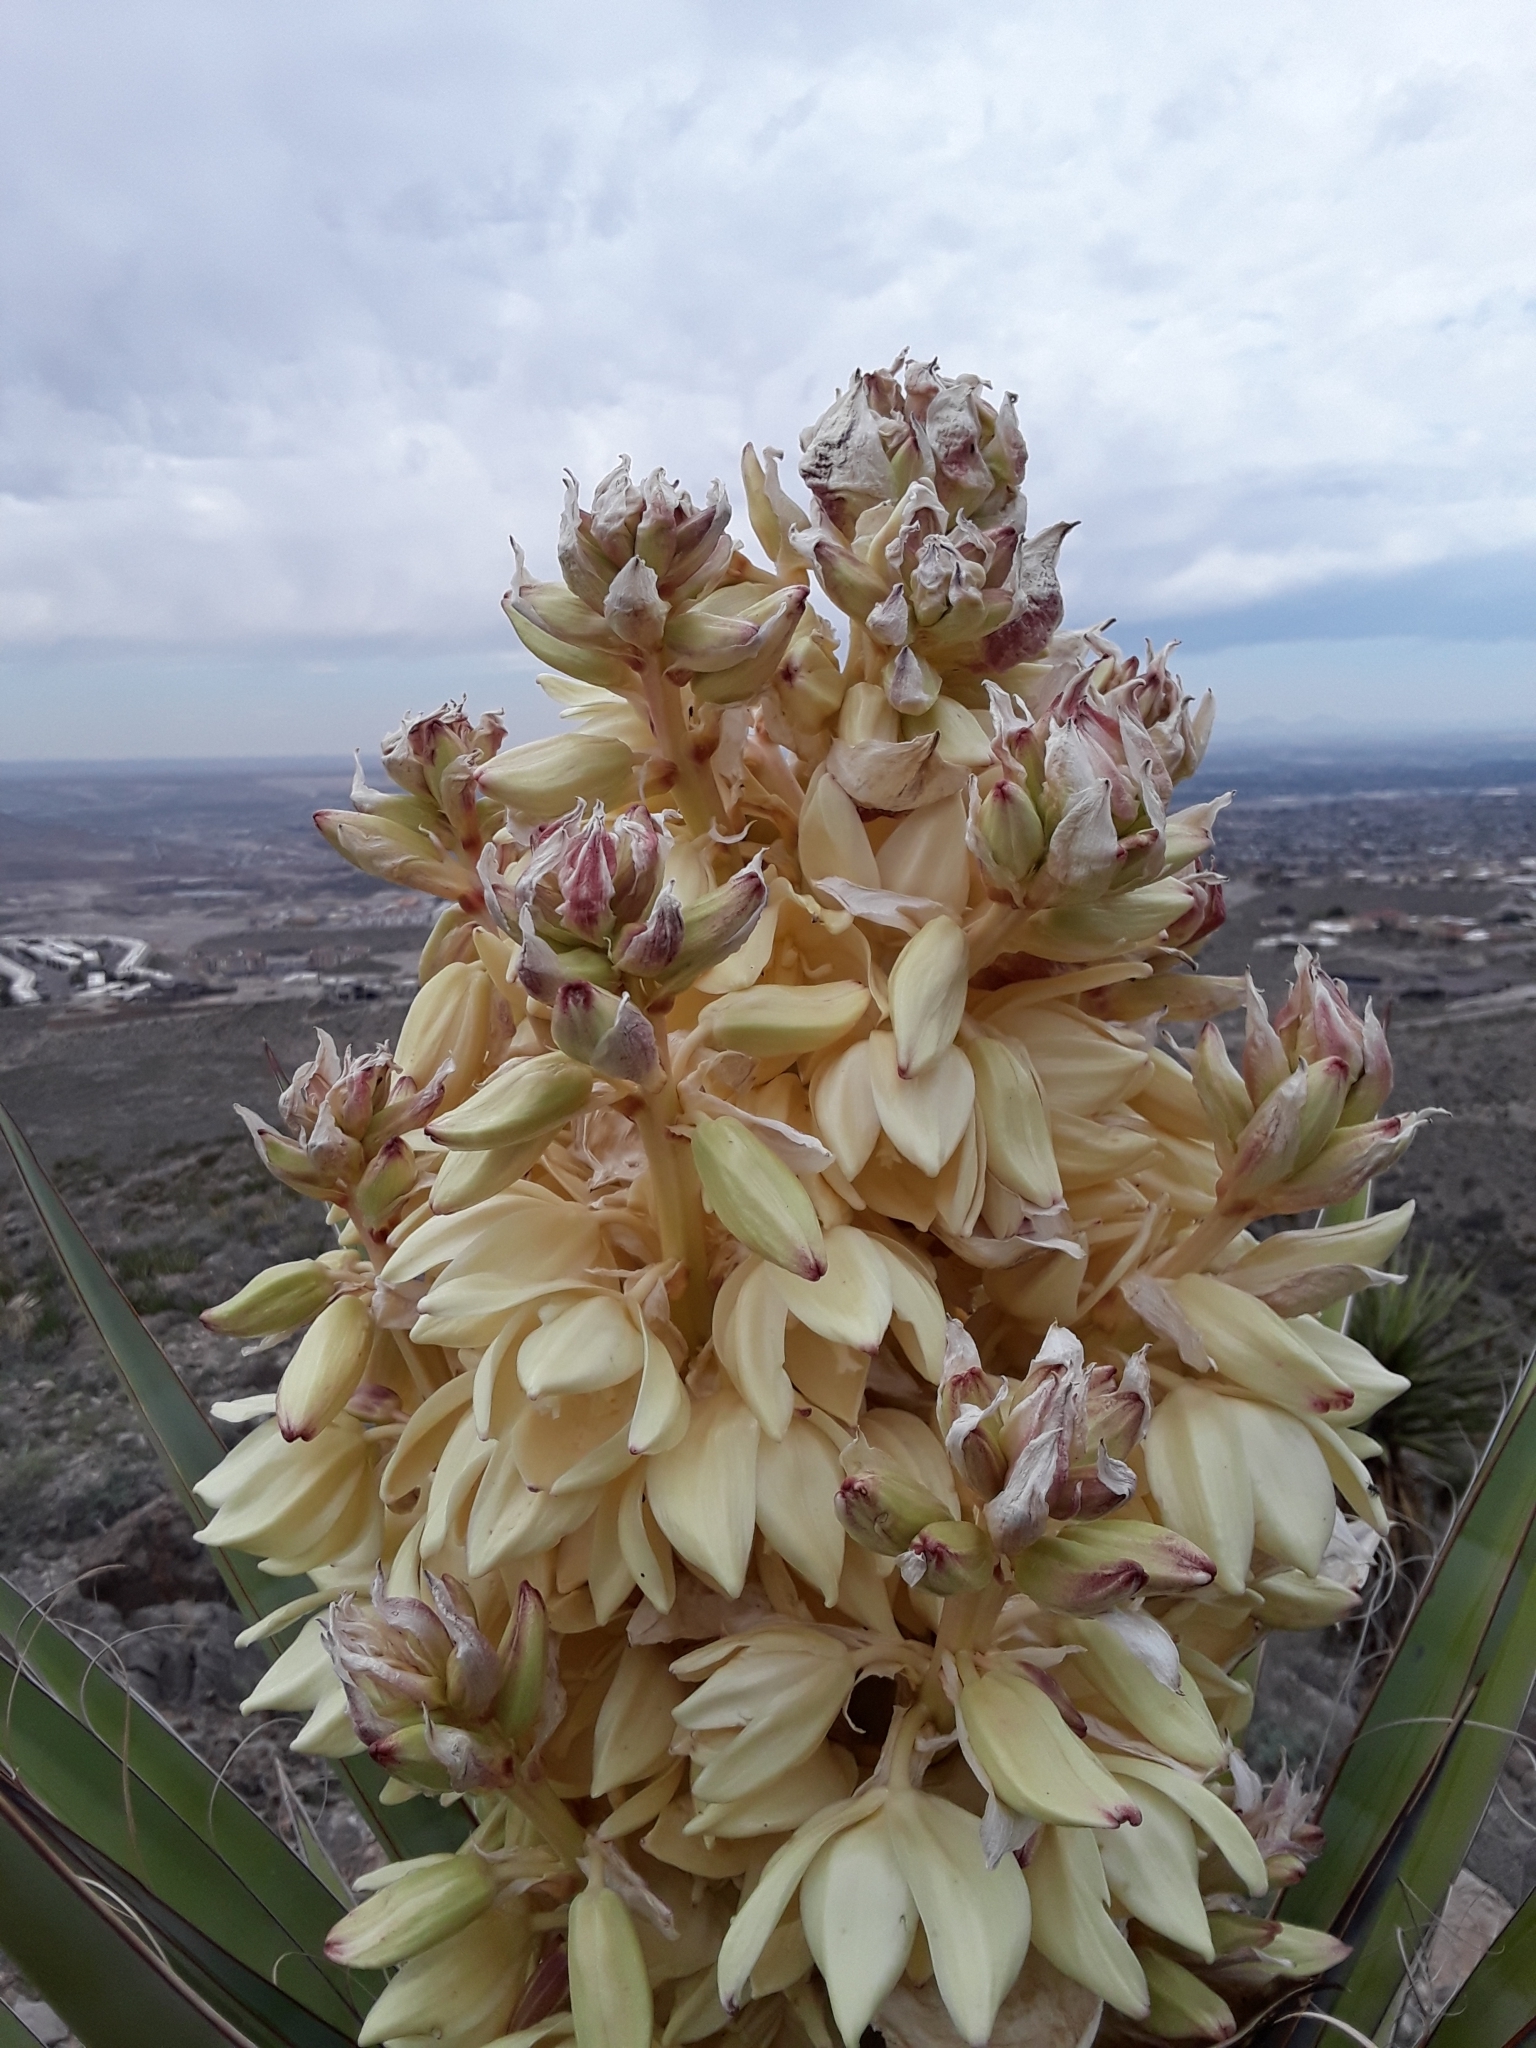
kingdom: Plantae
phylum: Tracheophyta
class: Liliopsida
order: Asparagales
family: Asparagaceae
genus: Yucca
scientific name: Yucca treculiana
